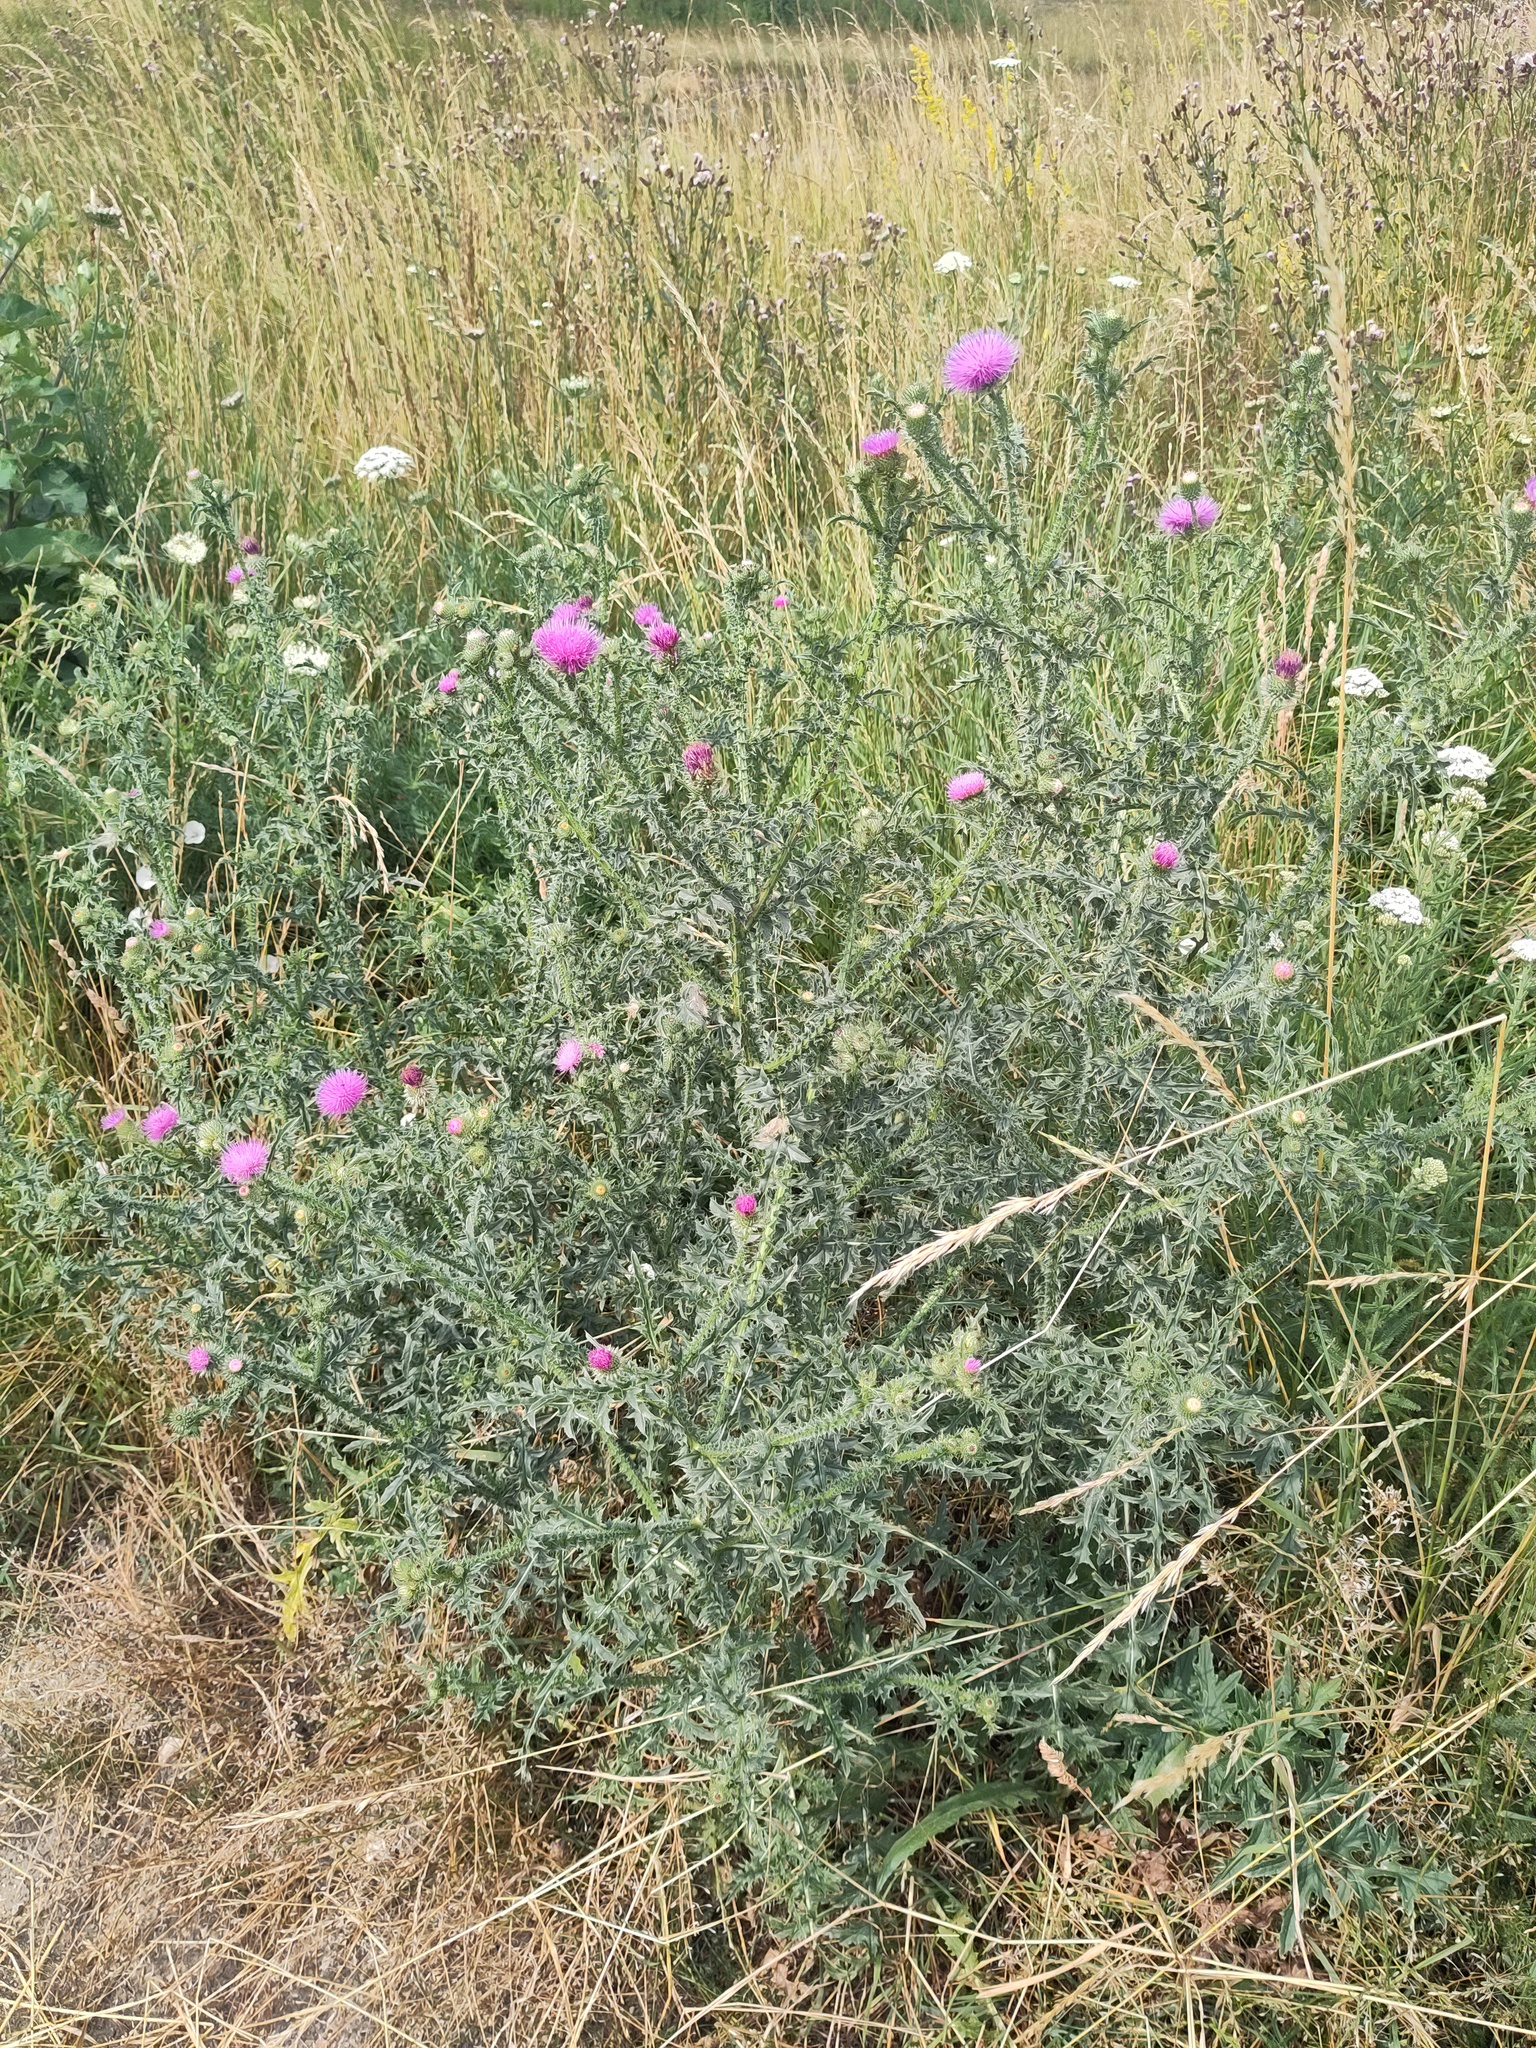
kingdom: Plantae
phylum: Tracheophyta
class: Magnoliopsida
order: Asterales
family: Asteraceae
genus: Carduus
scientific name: Carduus acanthoides
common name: Plumeless thistle
